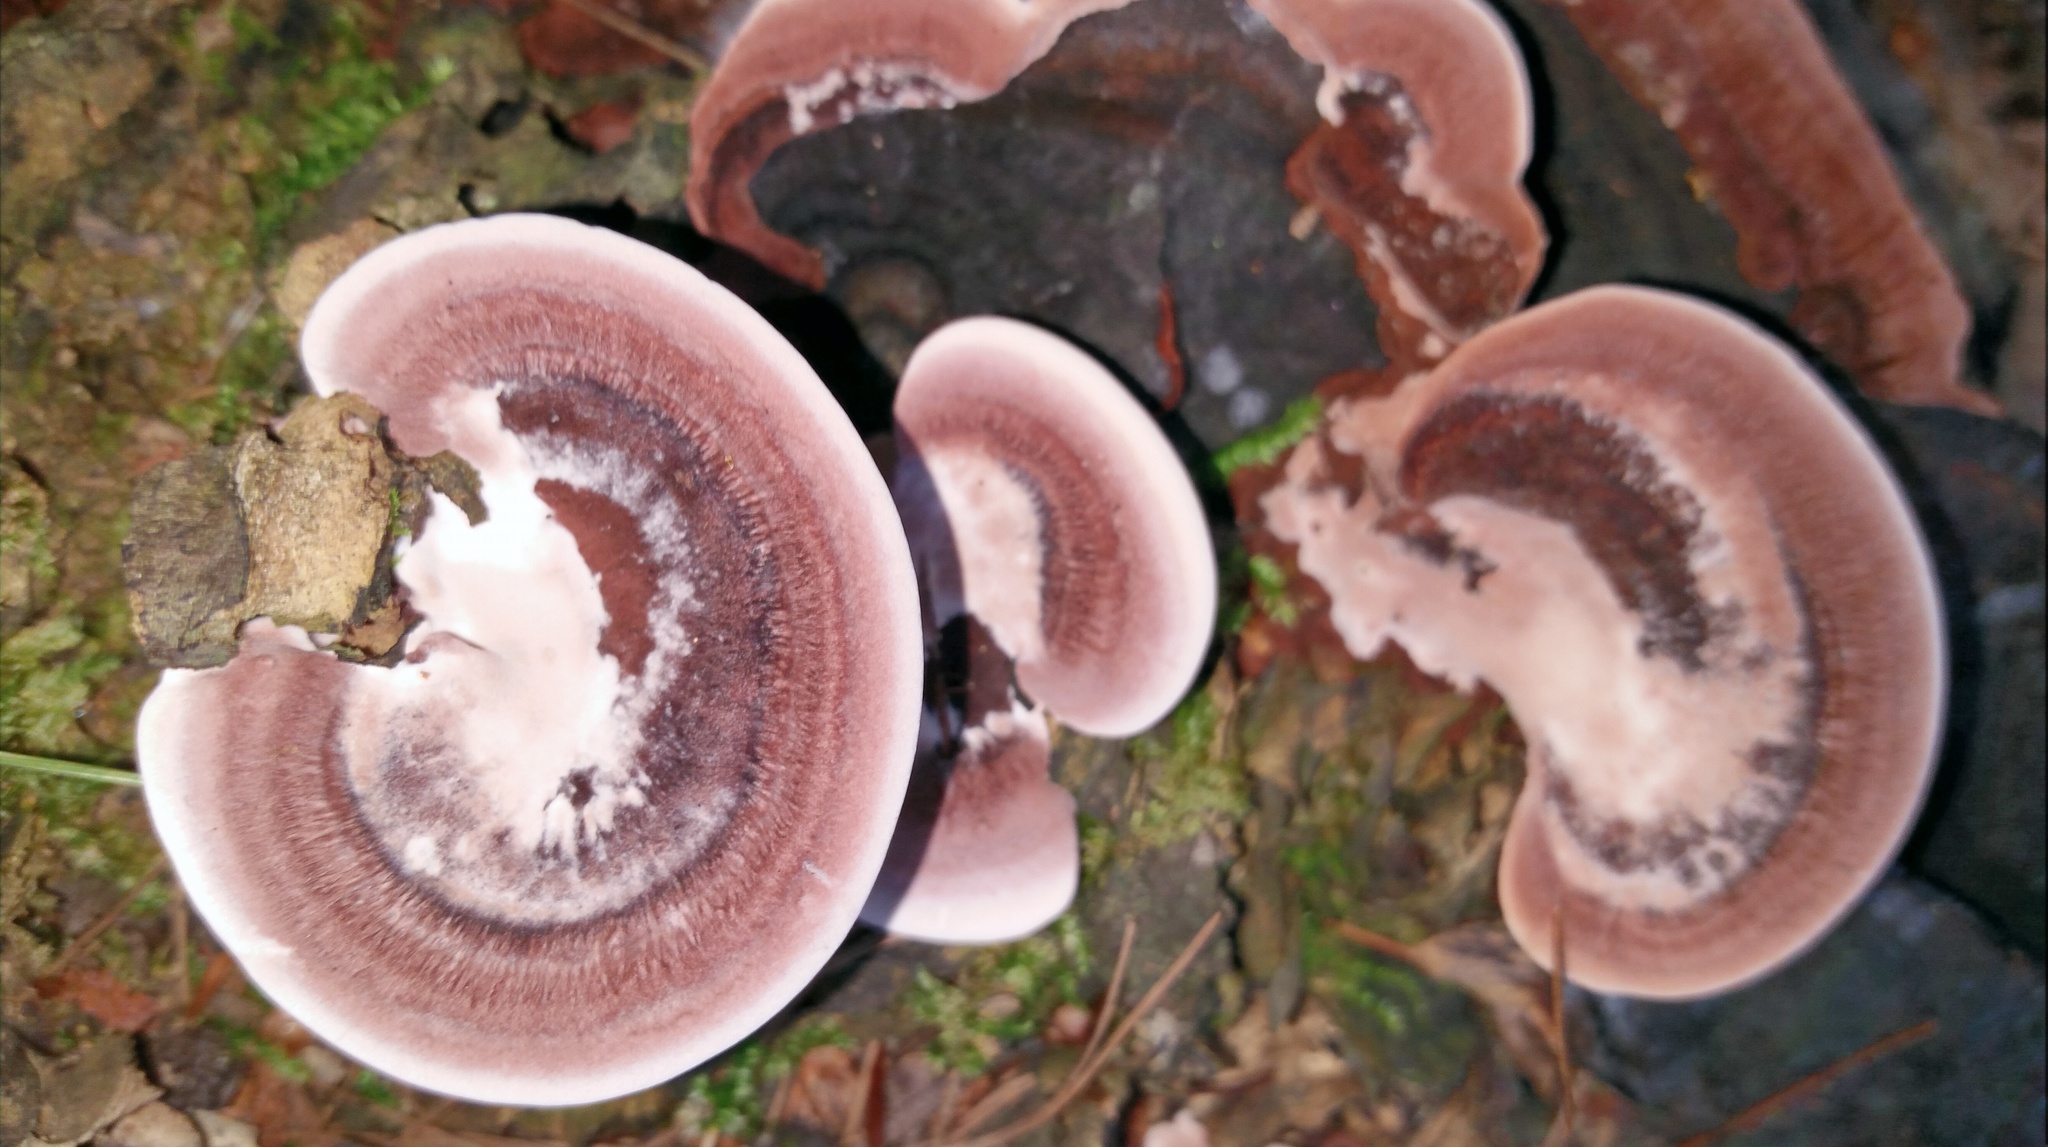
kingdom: Fungi
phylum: Basidiomycota
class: Agaricomycetes
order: Polyporales
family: Steccherinaceae
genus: Nigroporus
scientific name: Nigroporus vinosus
